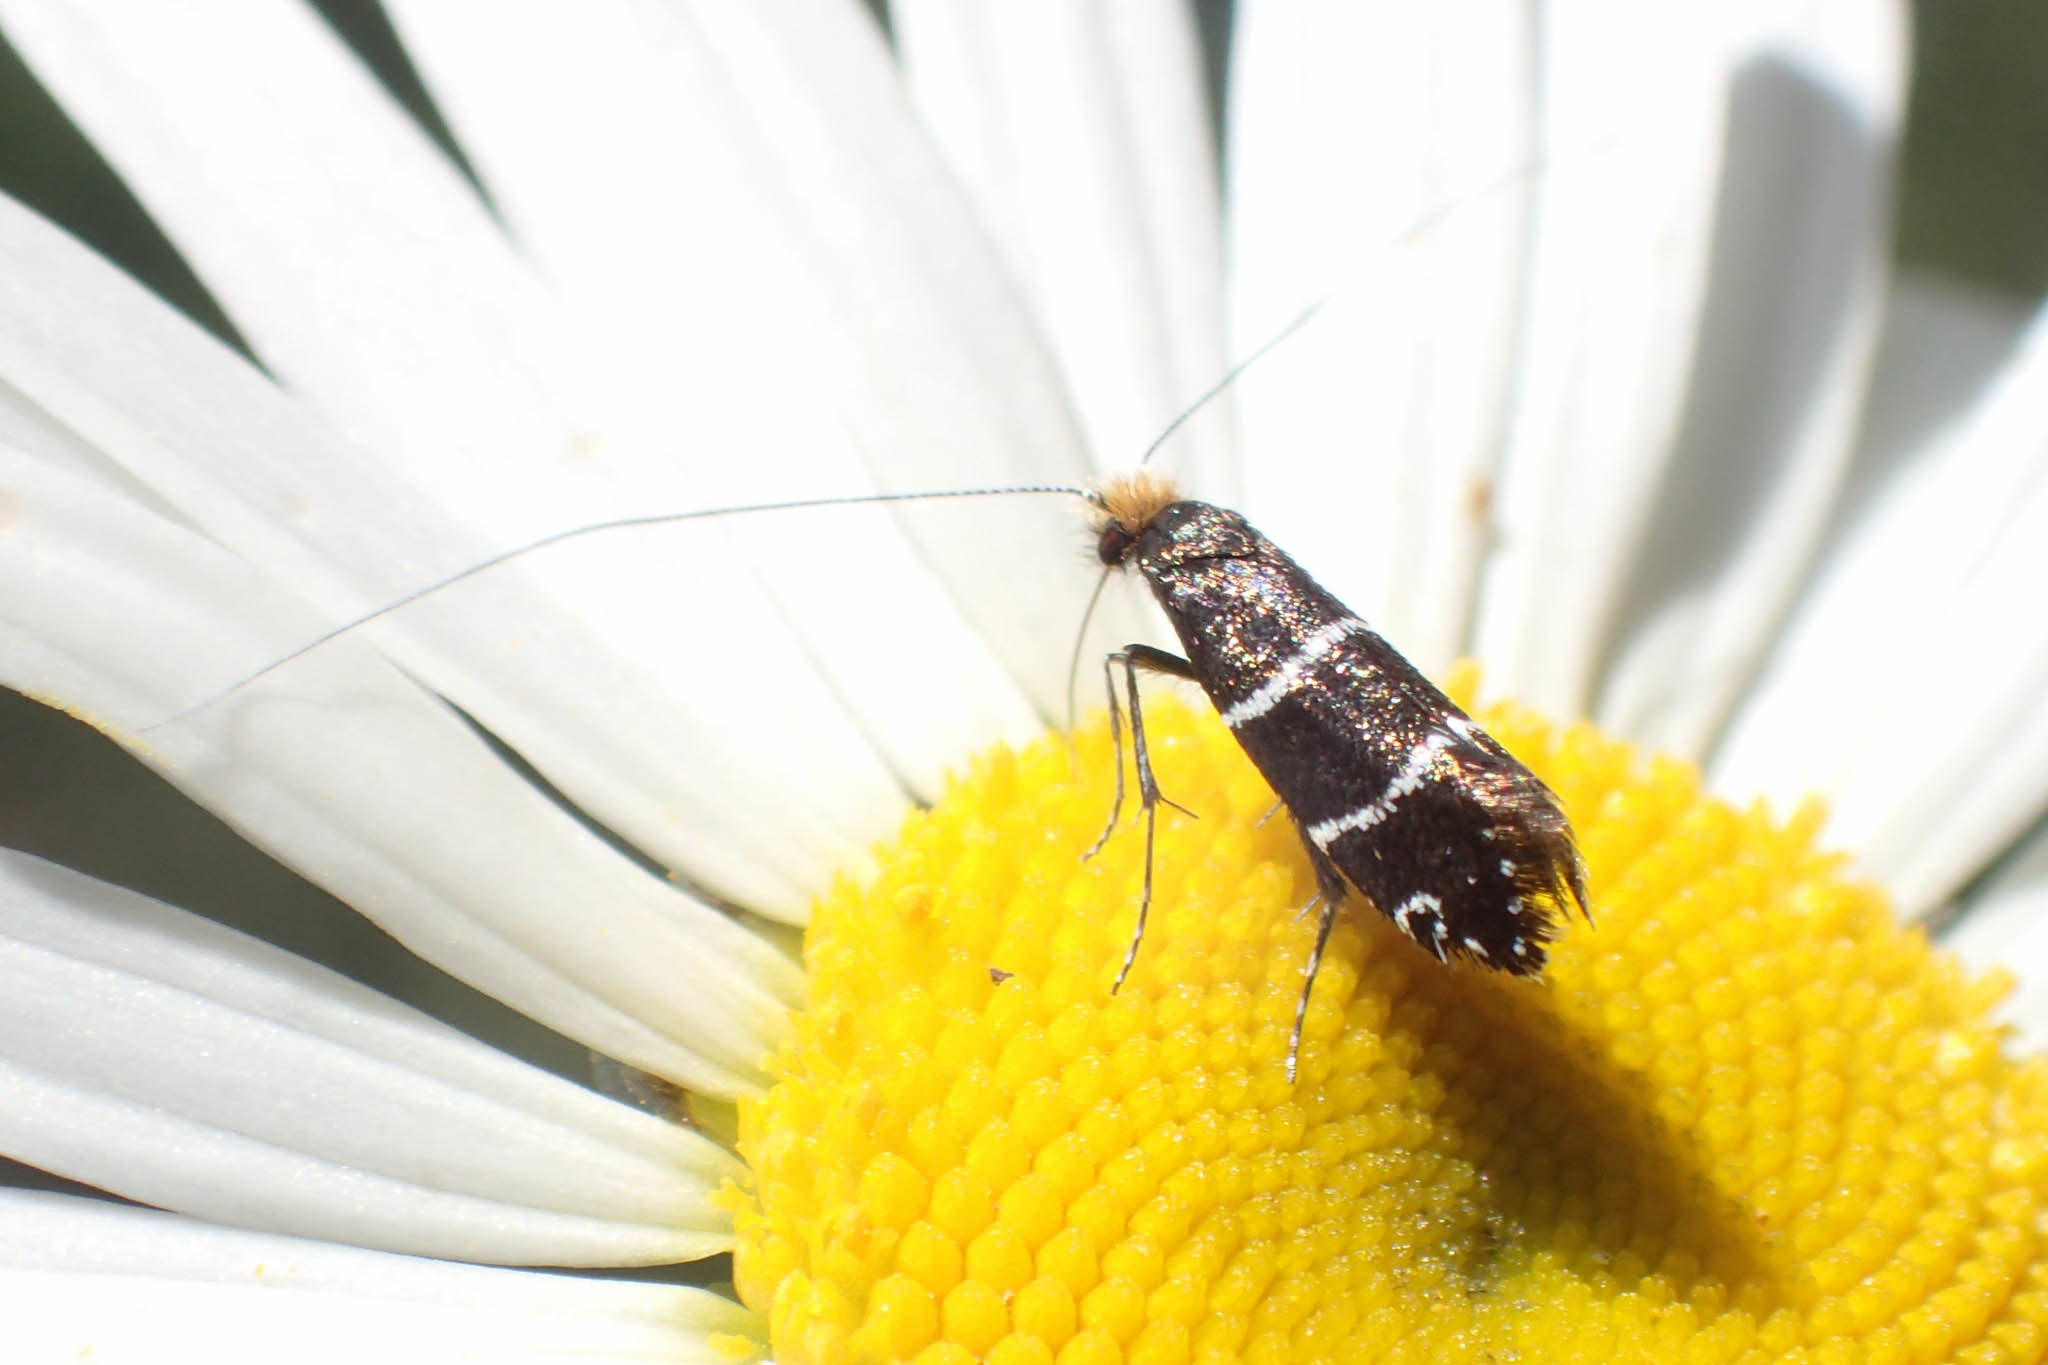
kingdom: Animalia
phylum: Arthropoda
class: Insecta
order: Lepidoptera
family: Adelidae
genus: Adela
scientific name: Adela septentrionella
